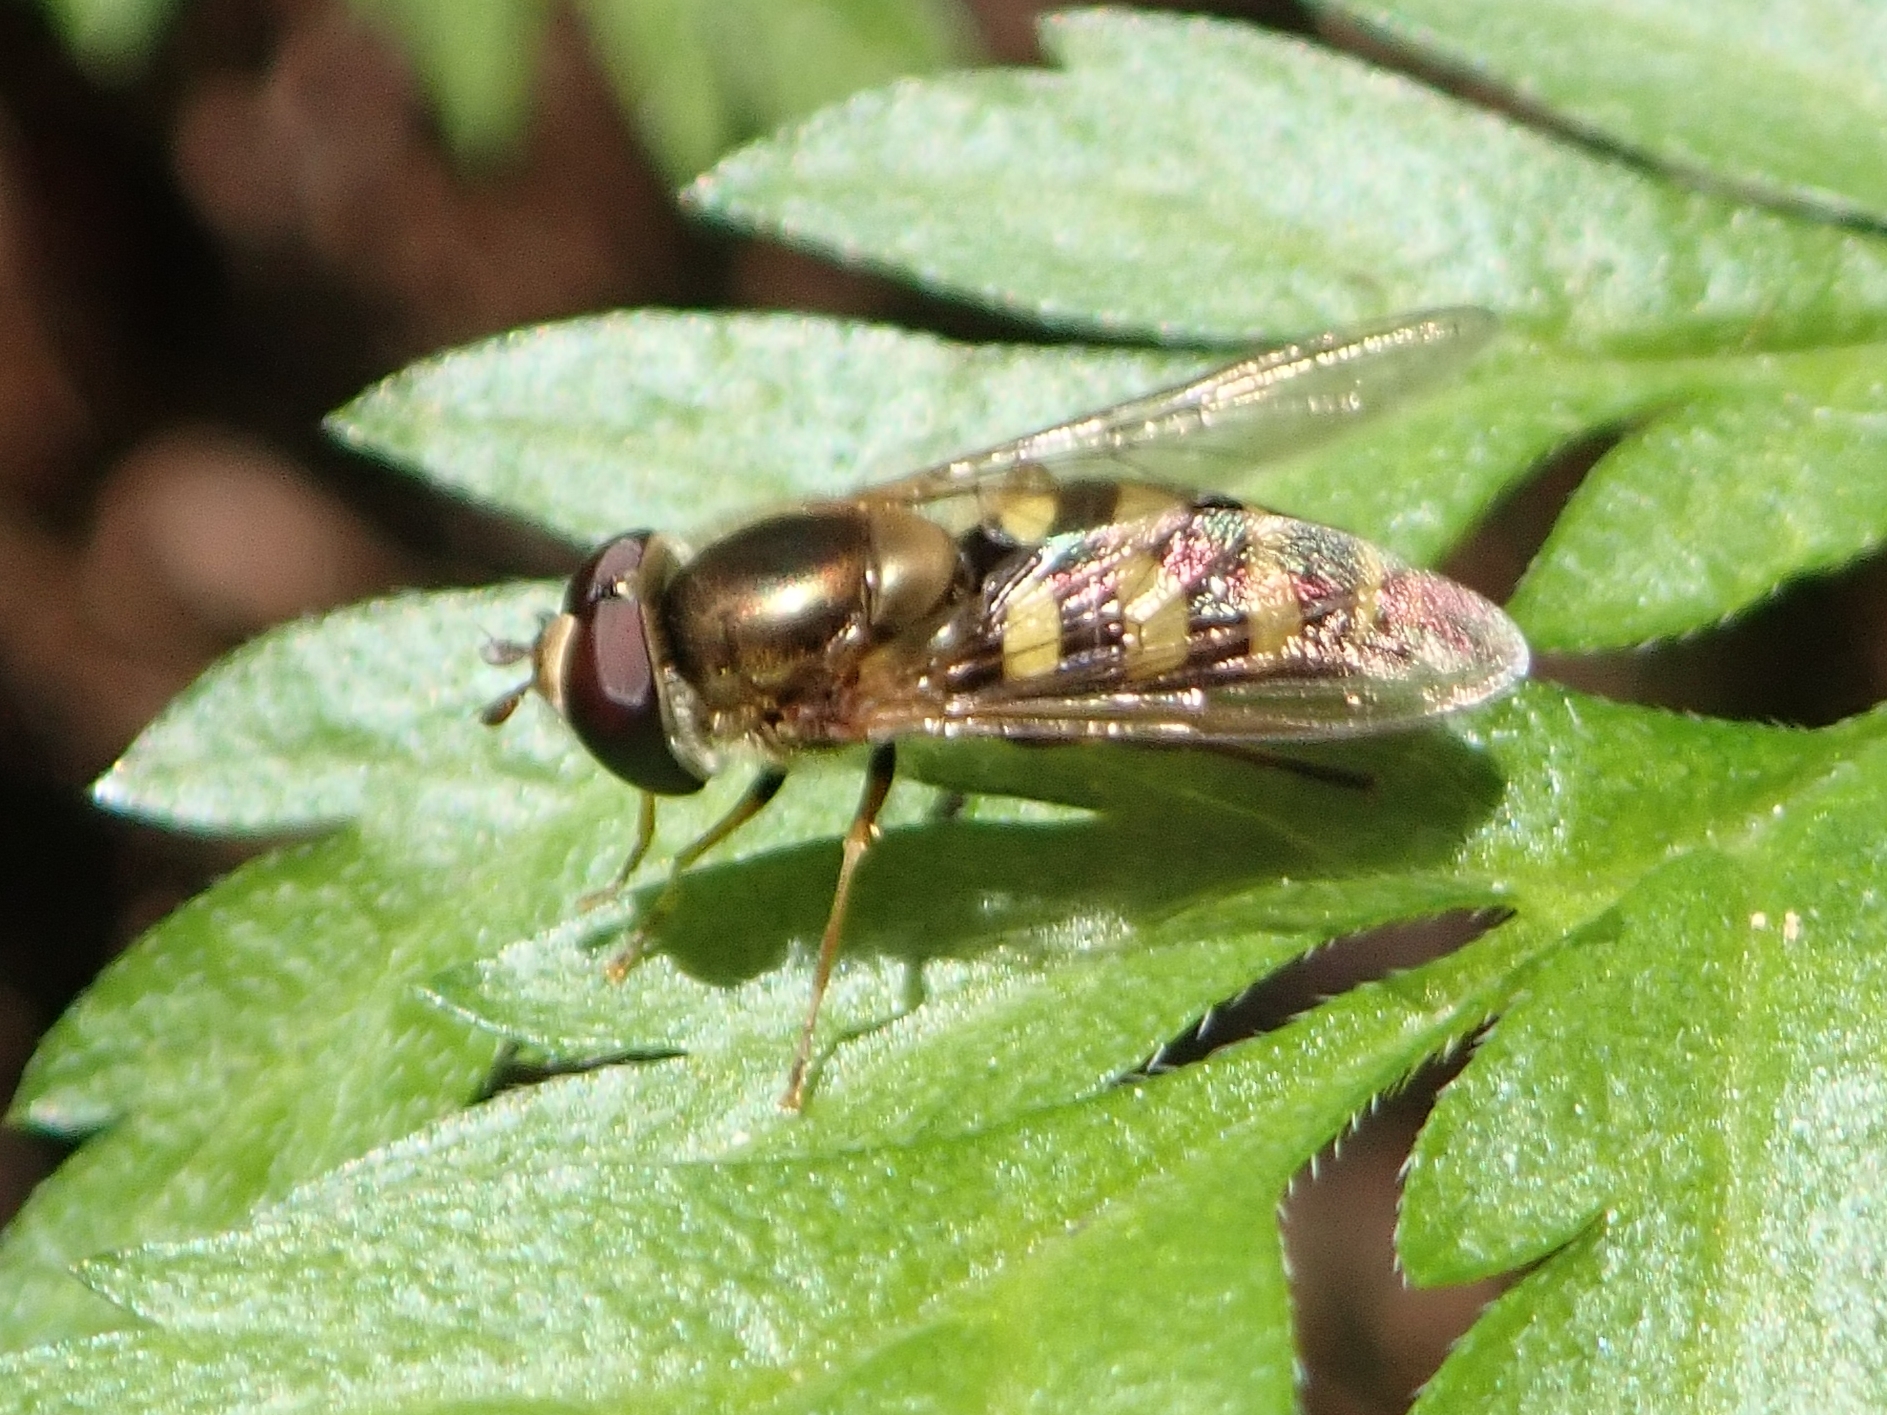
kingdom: Animalia
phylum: Arthropoda
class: Insecta
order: Diptera
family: Syrphidae
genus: Eupeodes
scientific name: Eupeodes fumipennis
